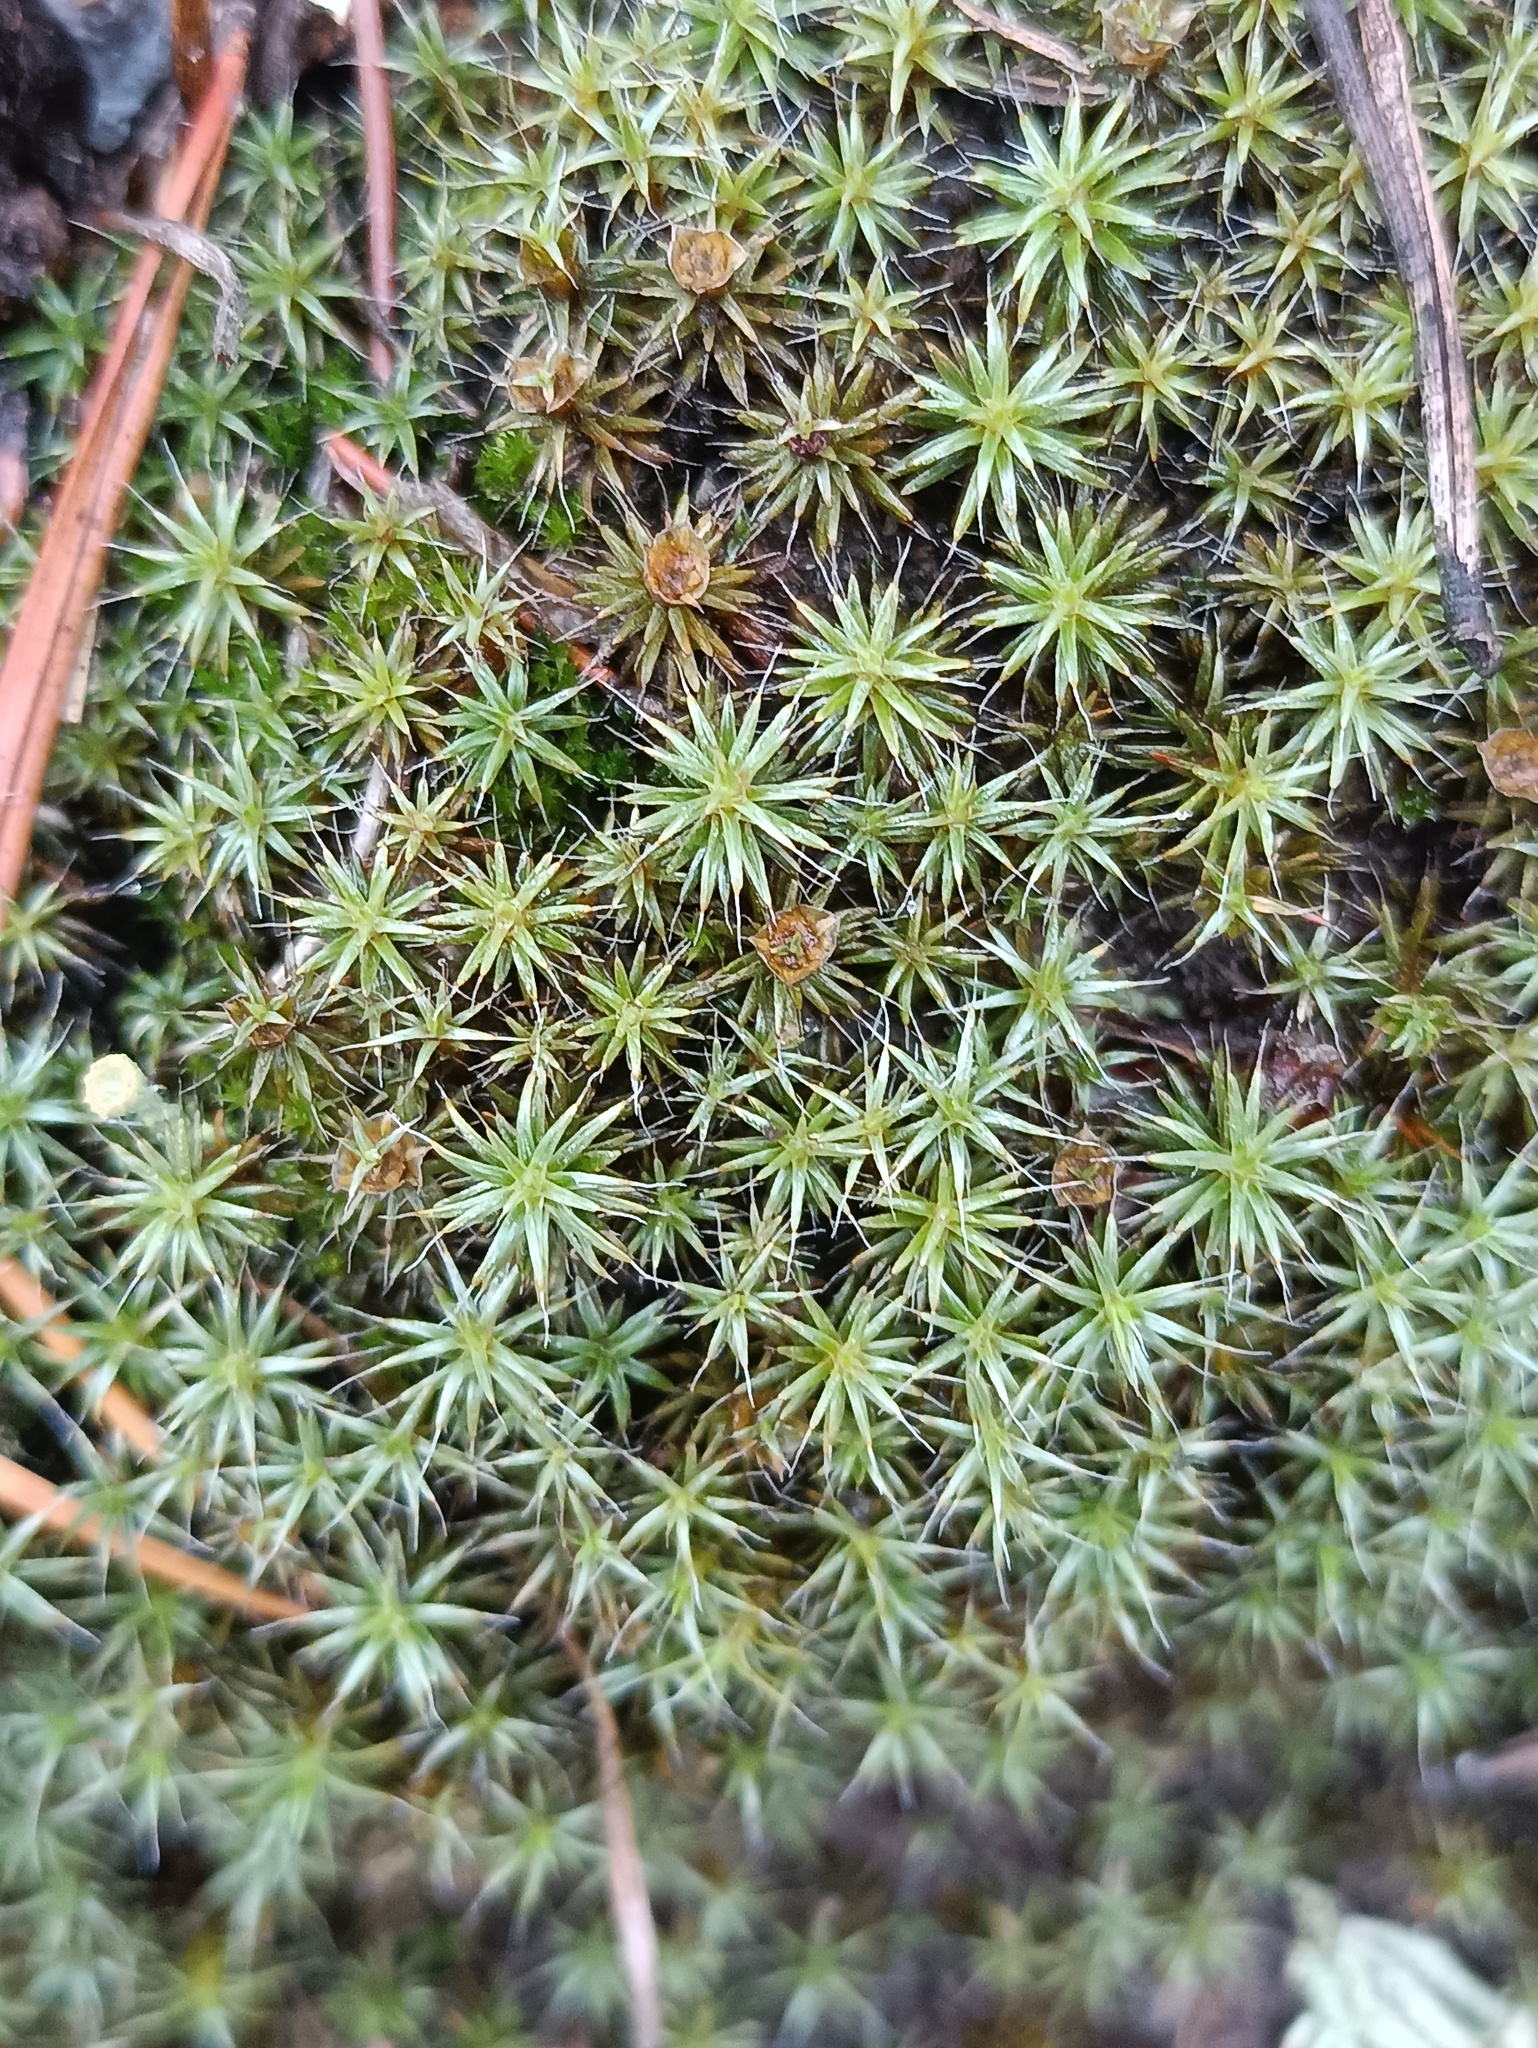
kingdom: Plantae
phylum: Bryophyta
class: Polytrichopsida
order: Polytrichales
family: Polytrichaceae
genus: Polytrichum
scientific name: Polytrichum piliferum
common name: Bristly haircap
